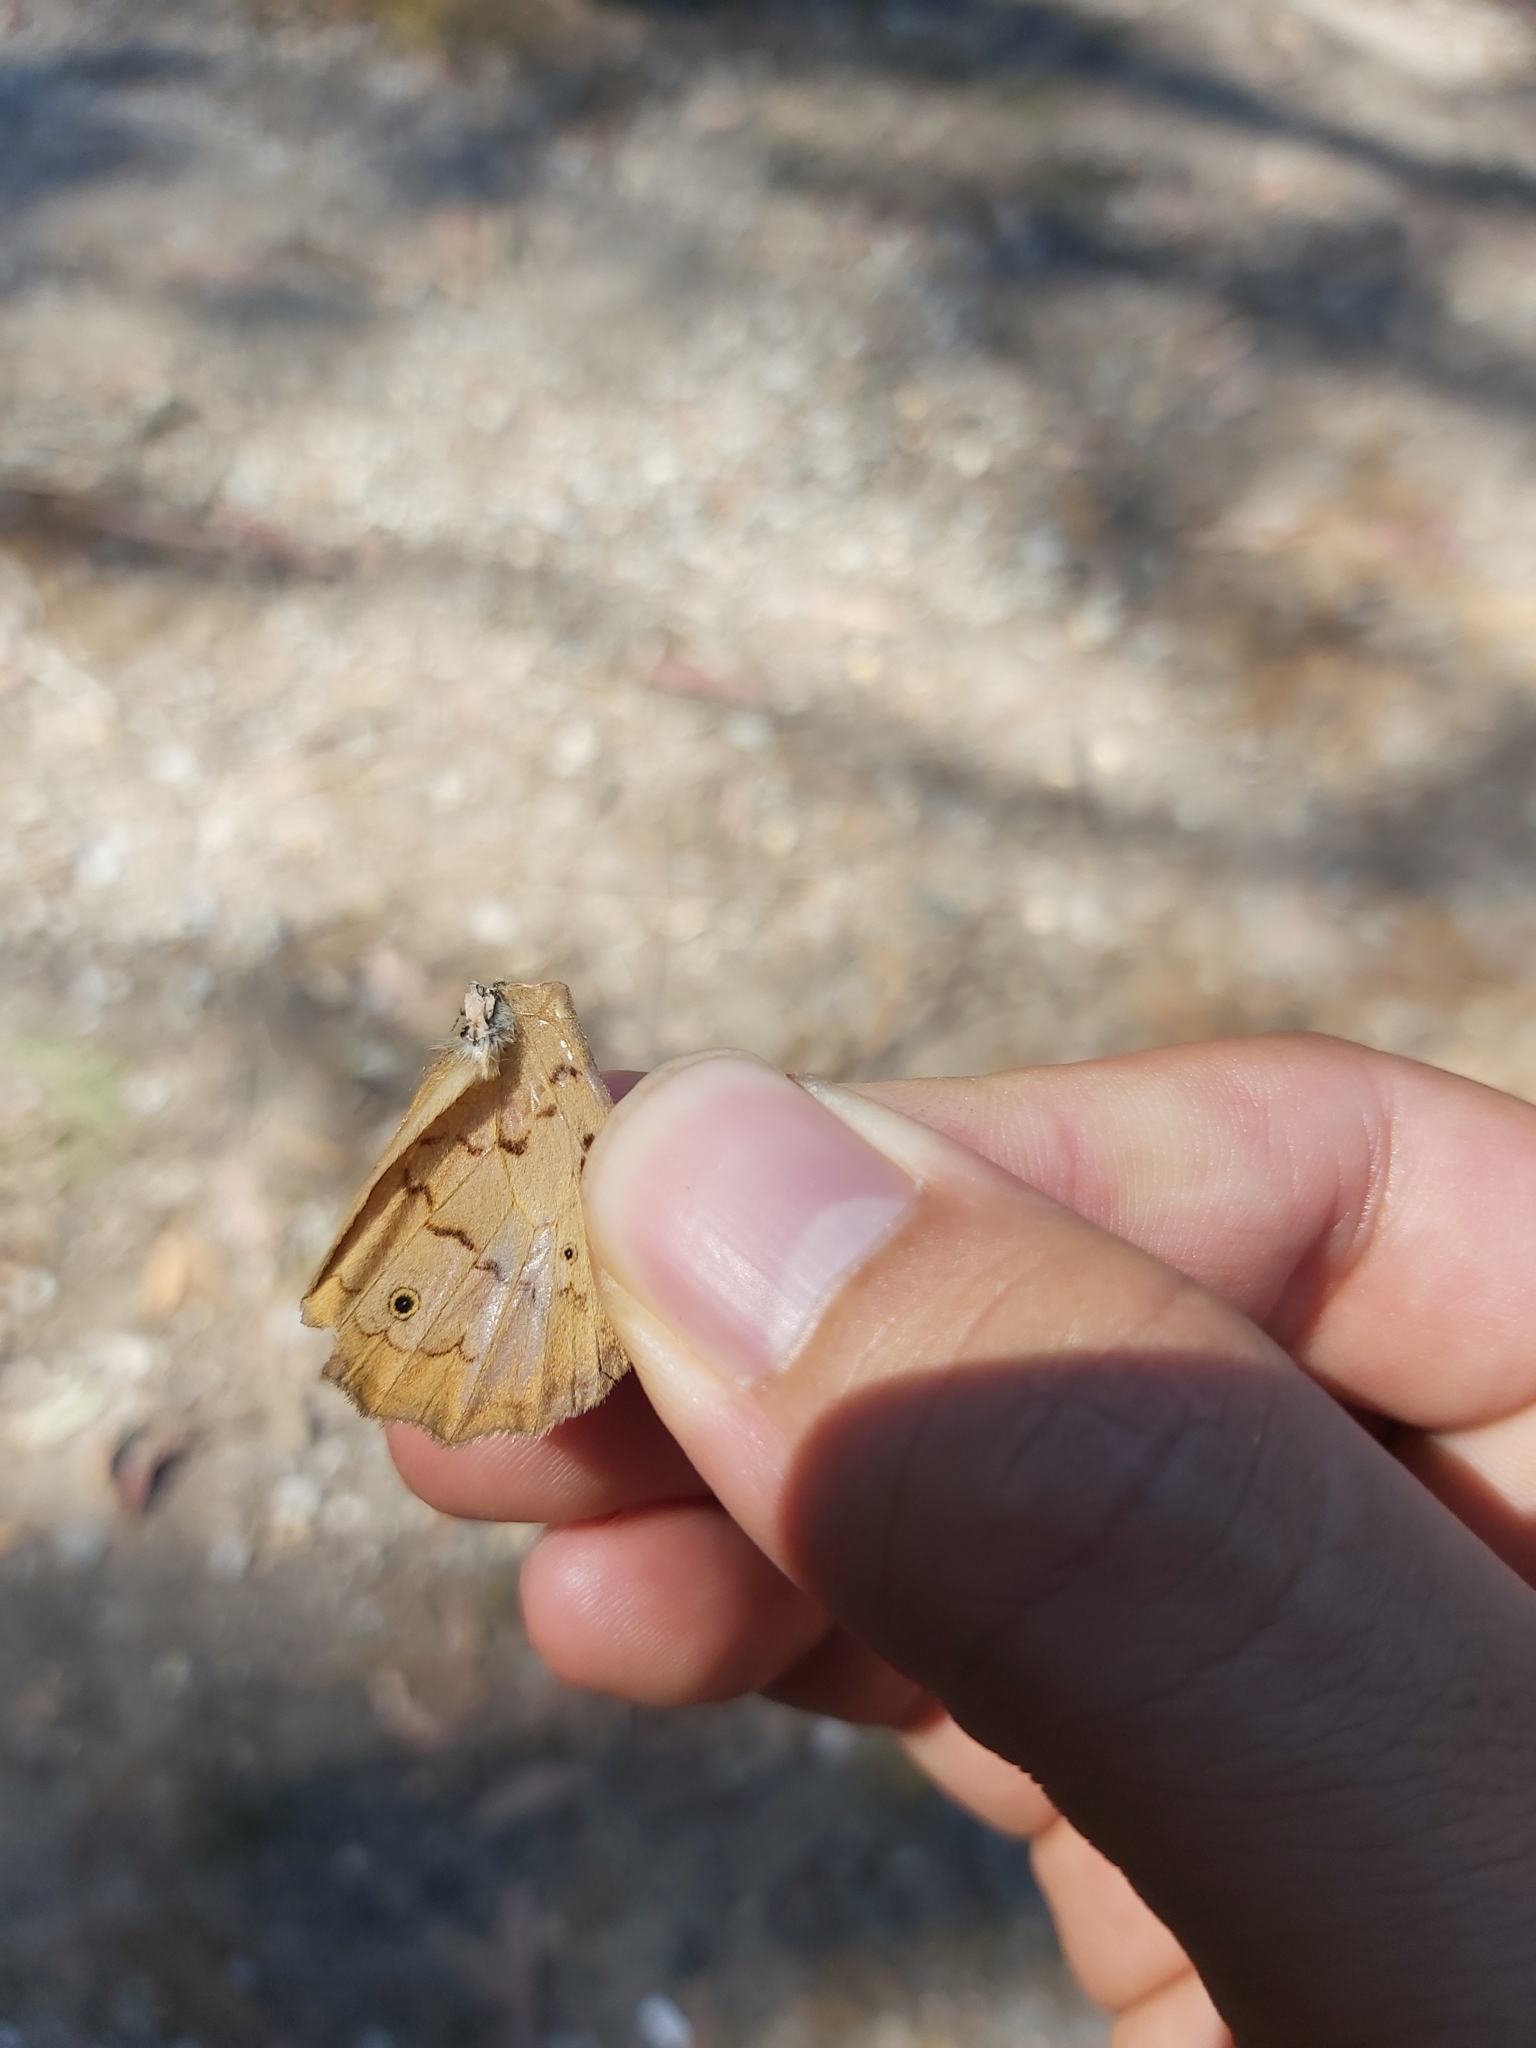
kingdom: Animalia
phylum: Arthropoda
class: Insecta
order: Lepidoptera
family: Nymphalidae
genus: Heteronympha
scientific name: Heteronympha merope
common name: Common brown
